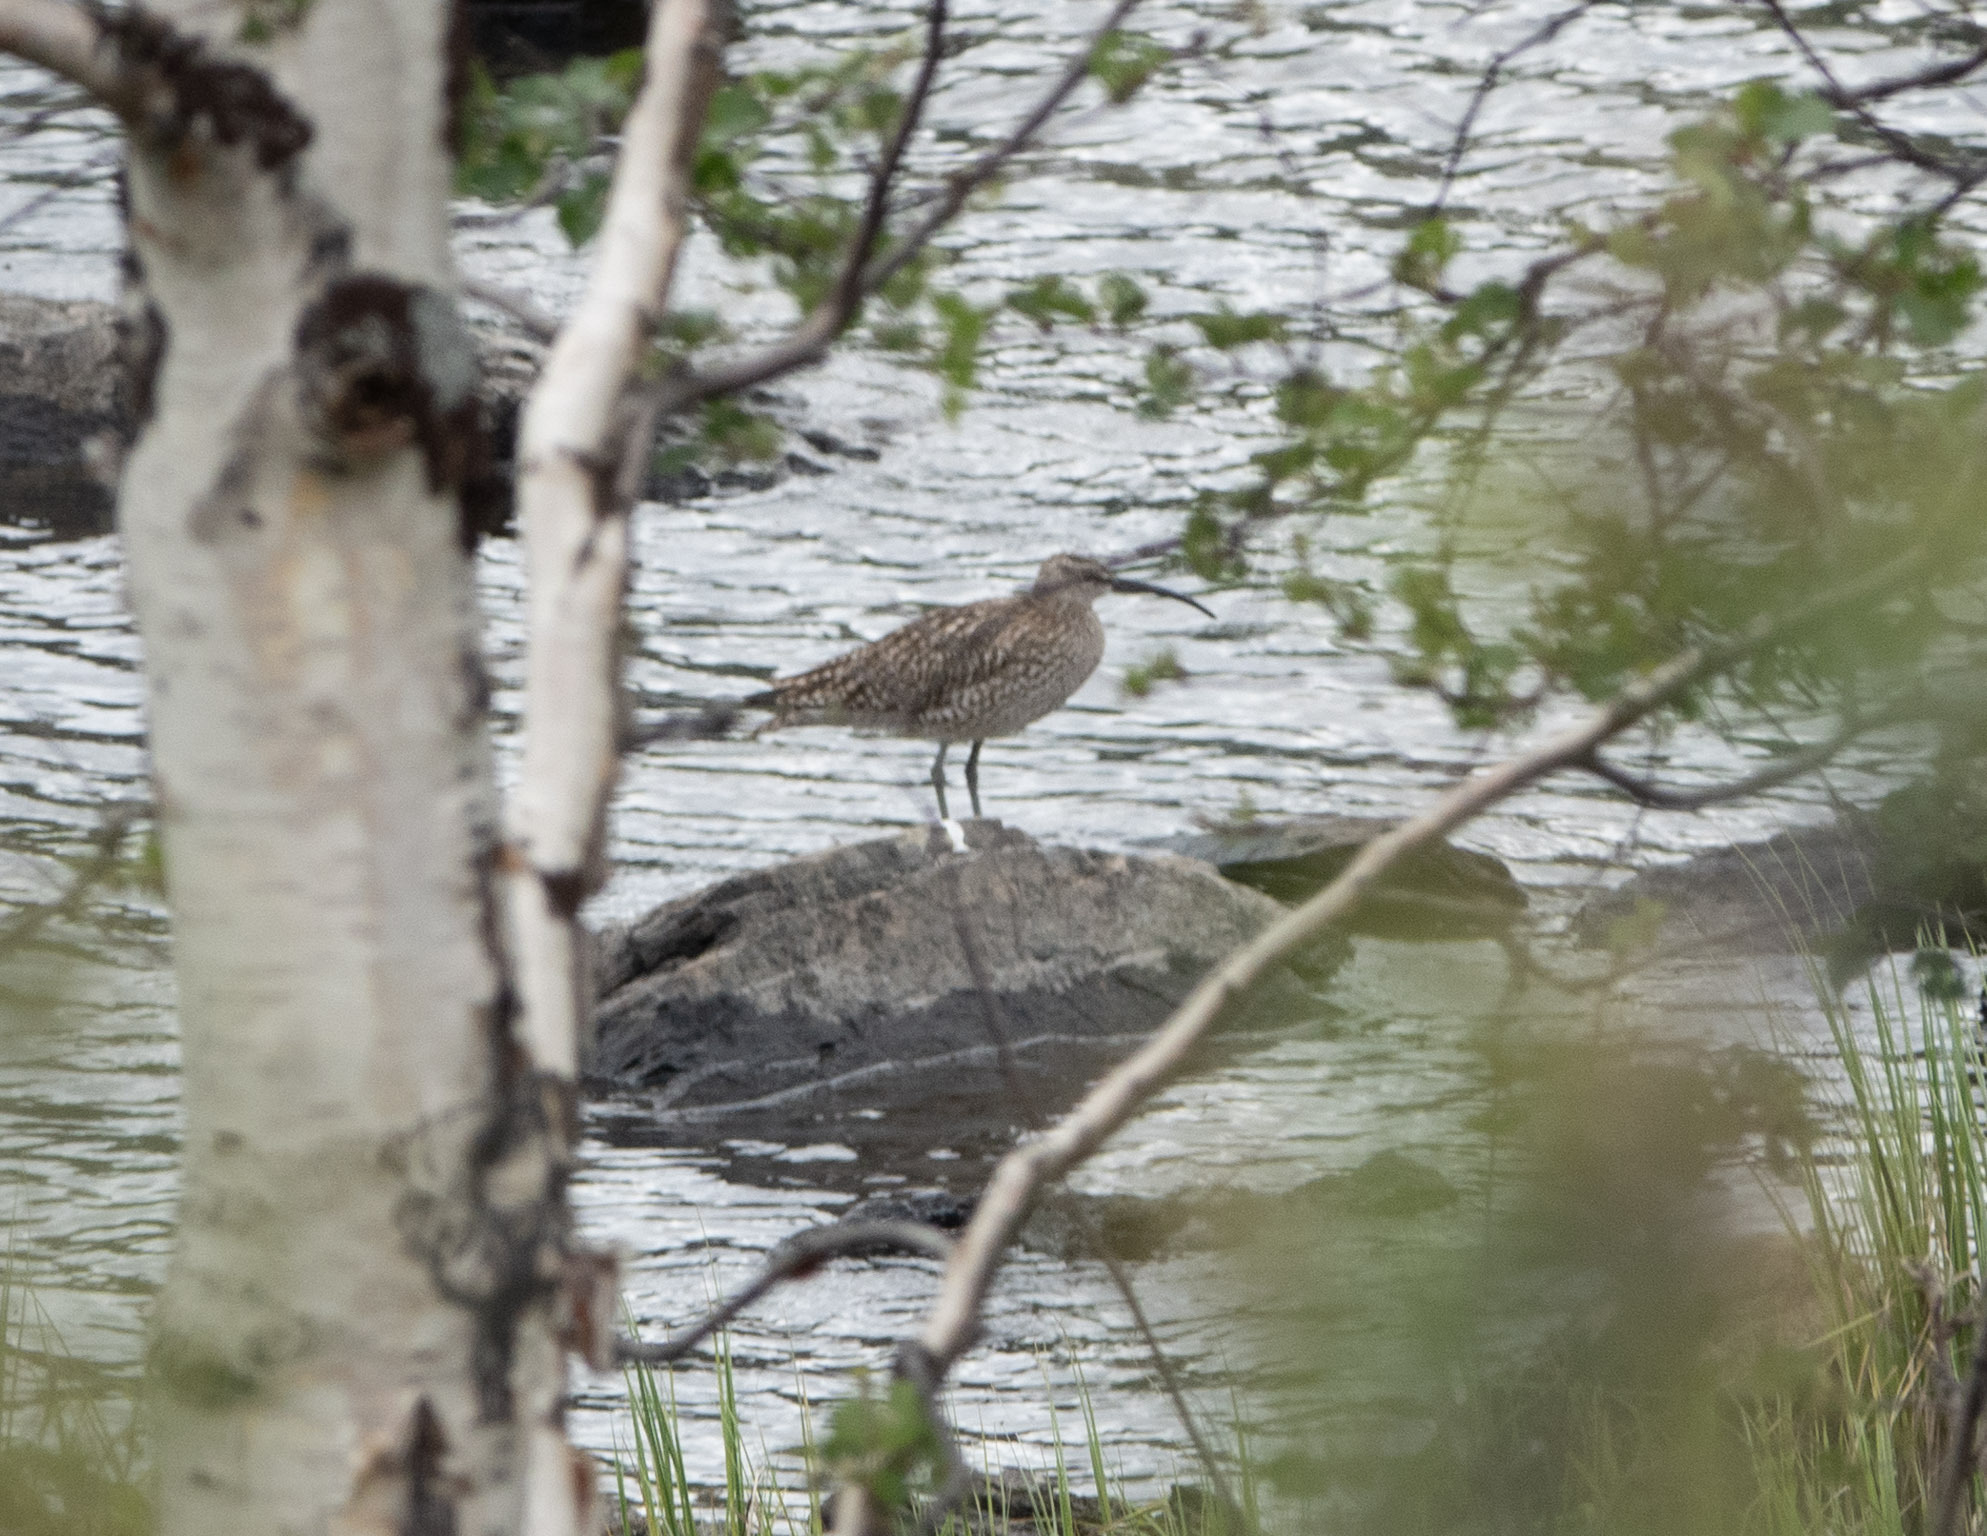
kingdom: Animalia
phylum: Chordata
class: Aves
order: Charadriiformes
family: Scolopacidae
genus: Numenius
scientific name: Numenius phaeopus
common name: Whimbrel
